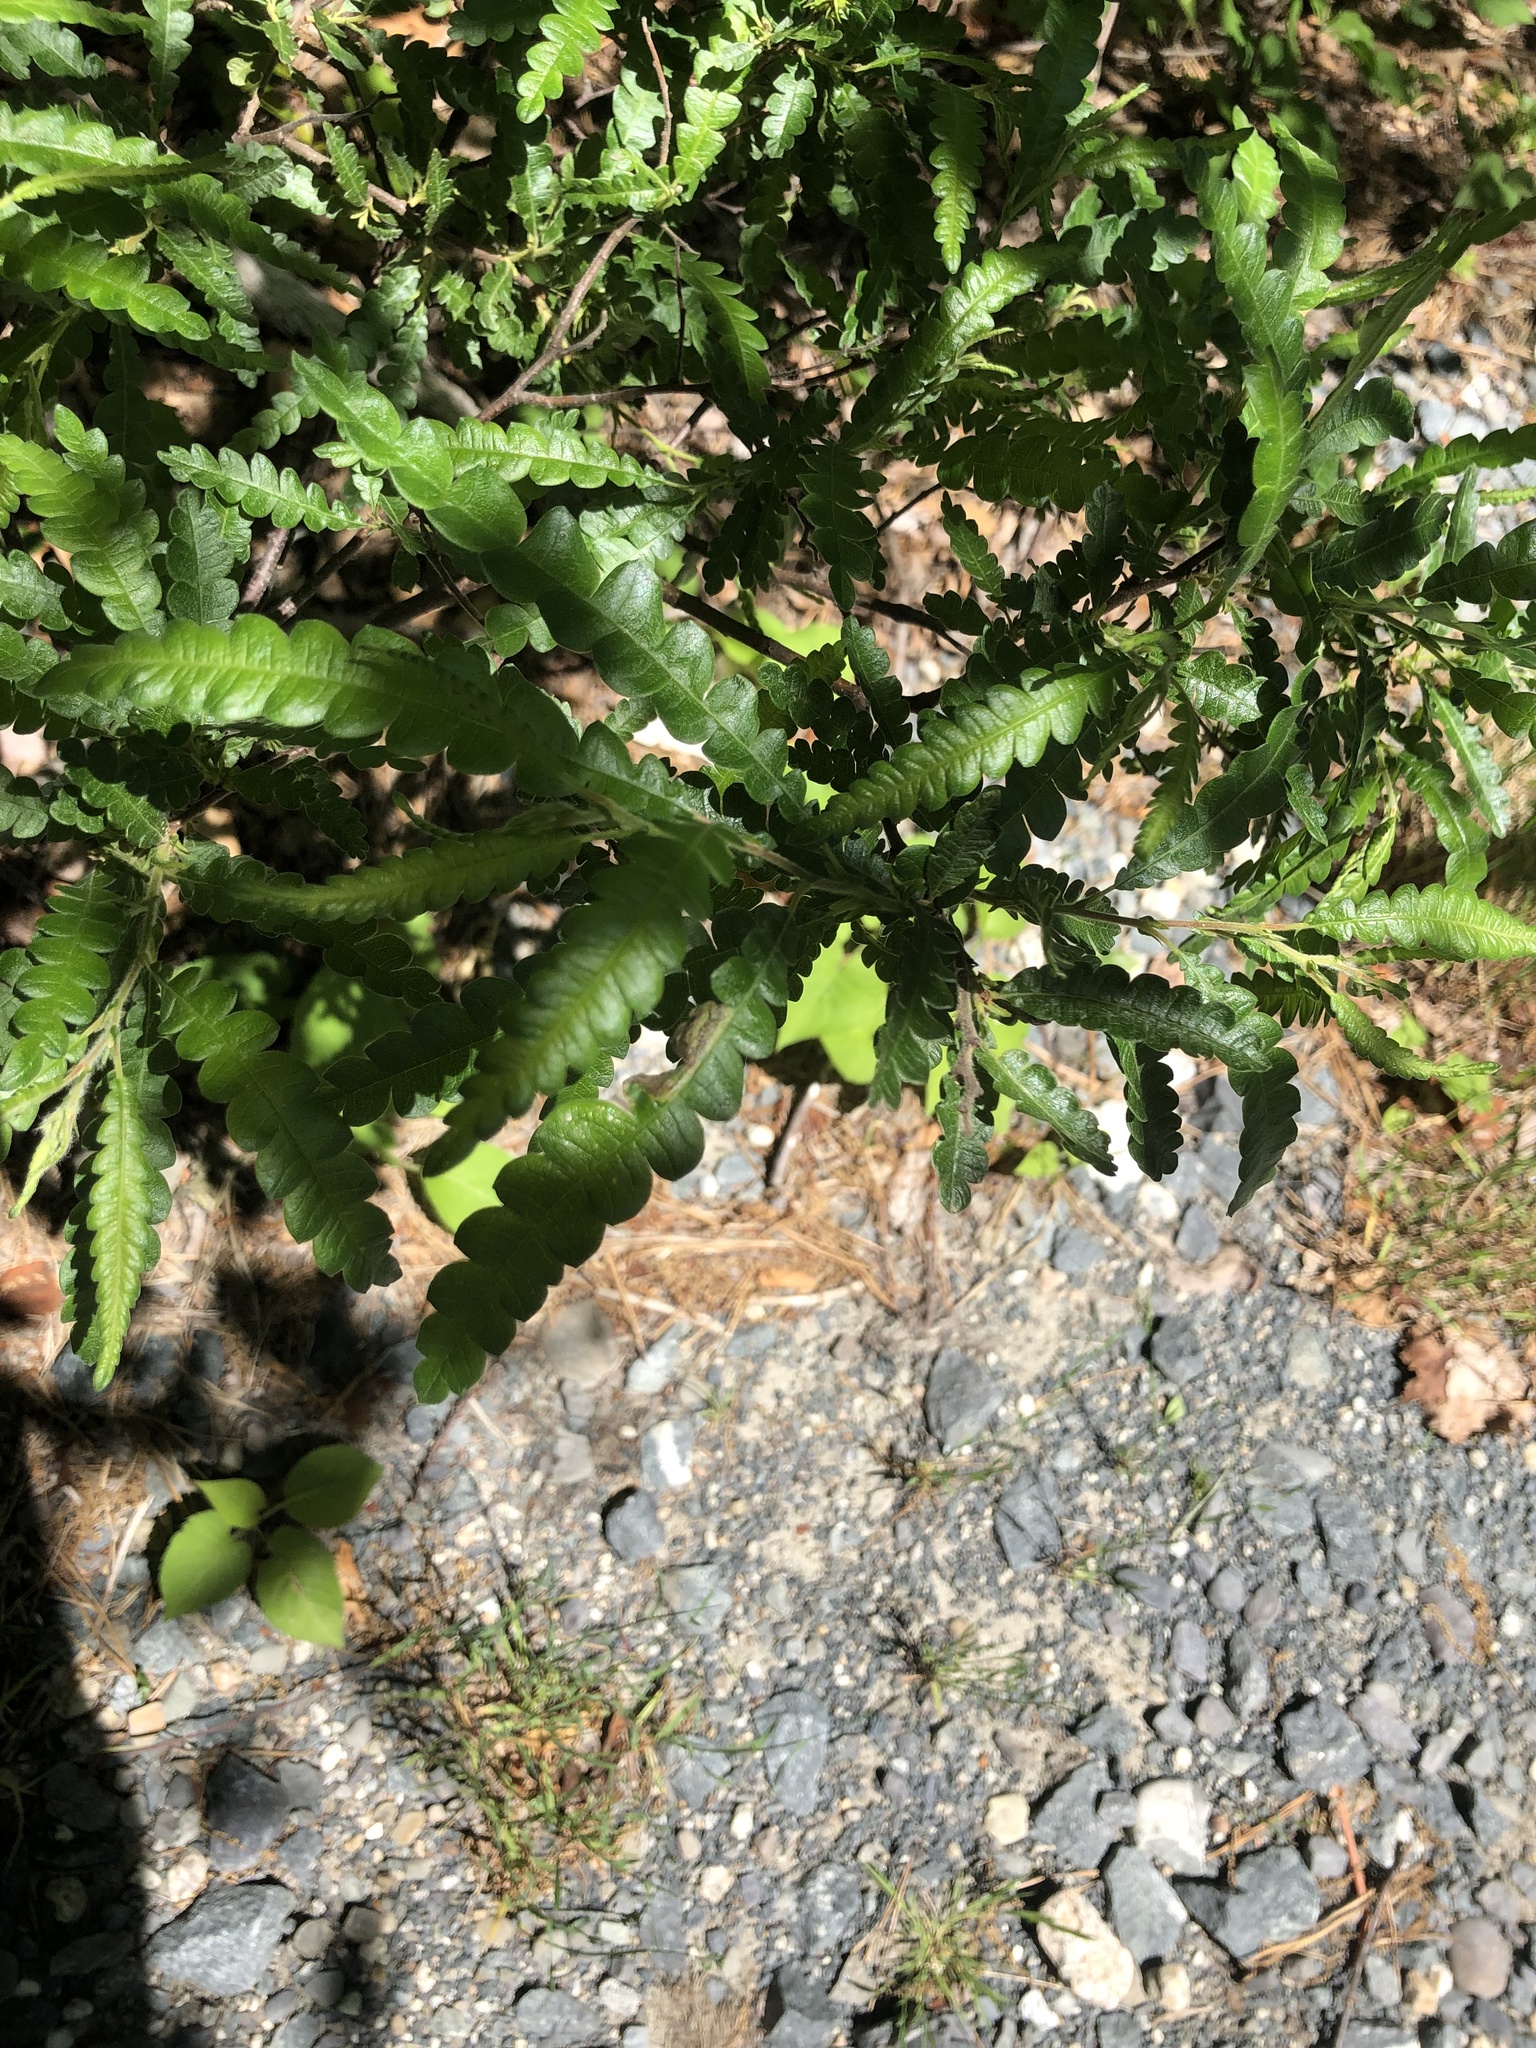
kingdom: Plantae
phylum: Tracheophyta
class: Magnoliopsida
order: Fagales
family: Myricaceae
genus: Comptonia
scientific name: Comptonia peregrina
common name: Sweet-fern
